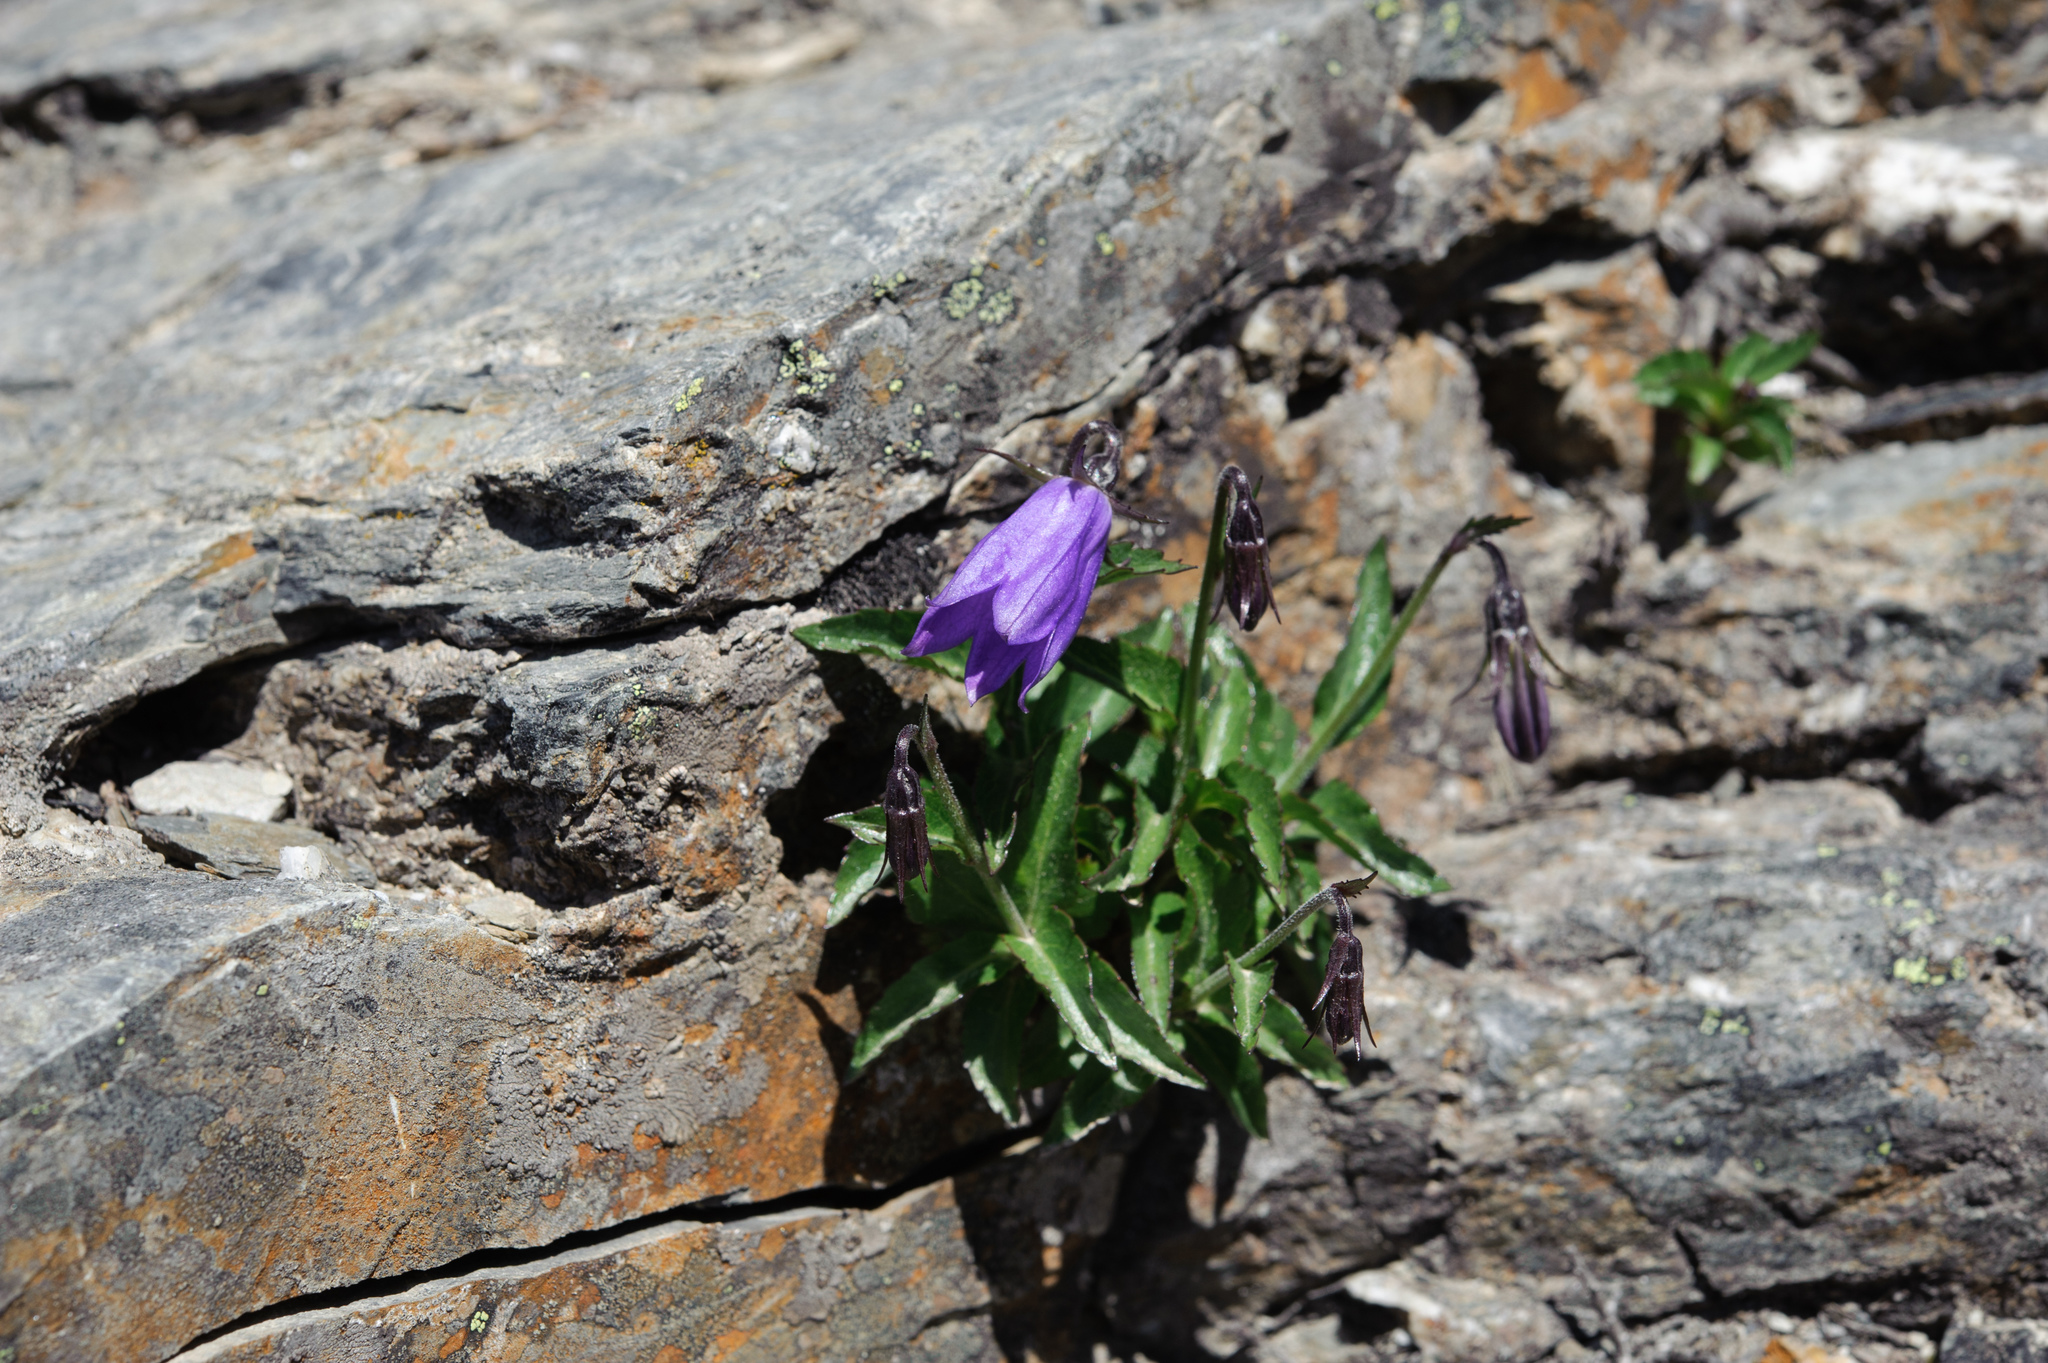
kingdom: Plantae
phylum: Tracheophyta
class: Magnoliopsida
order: Asterales
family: Campanulaceae
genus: Adenophora
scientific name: Adenophora morrisonensis
